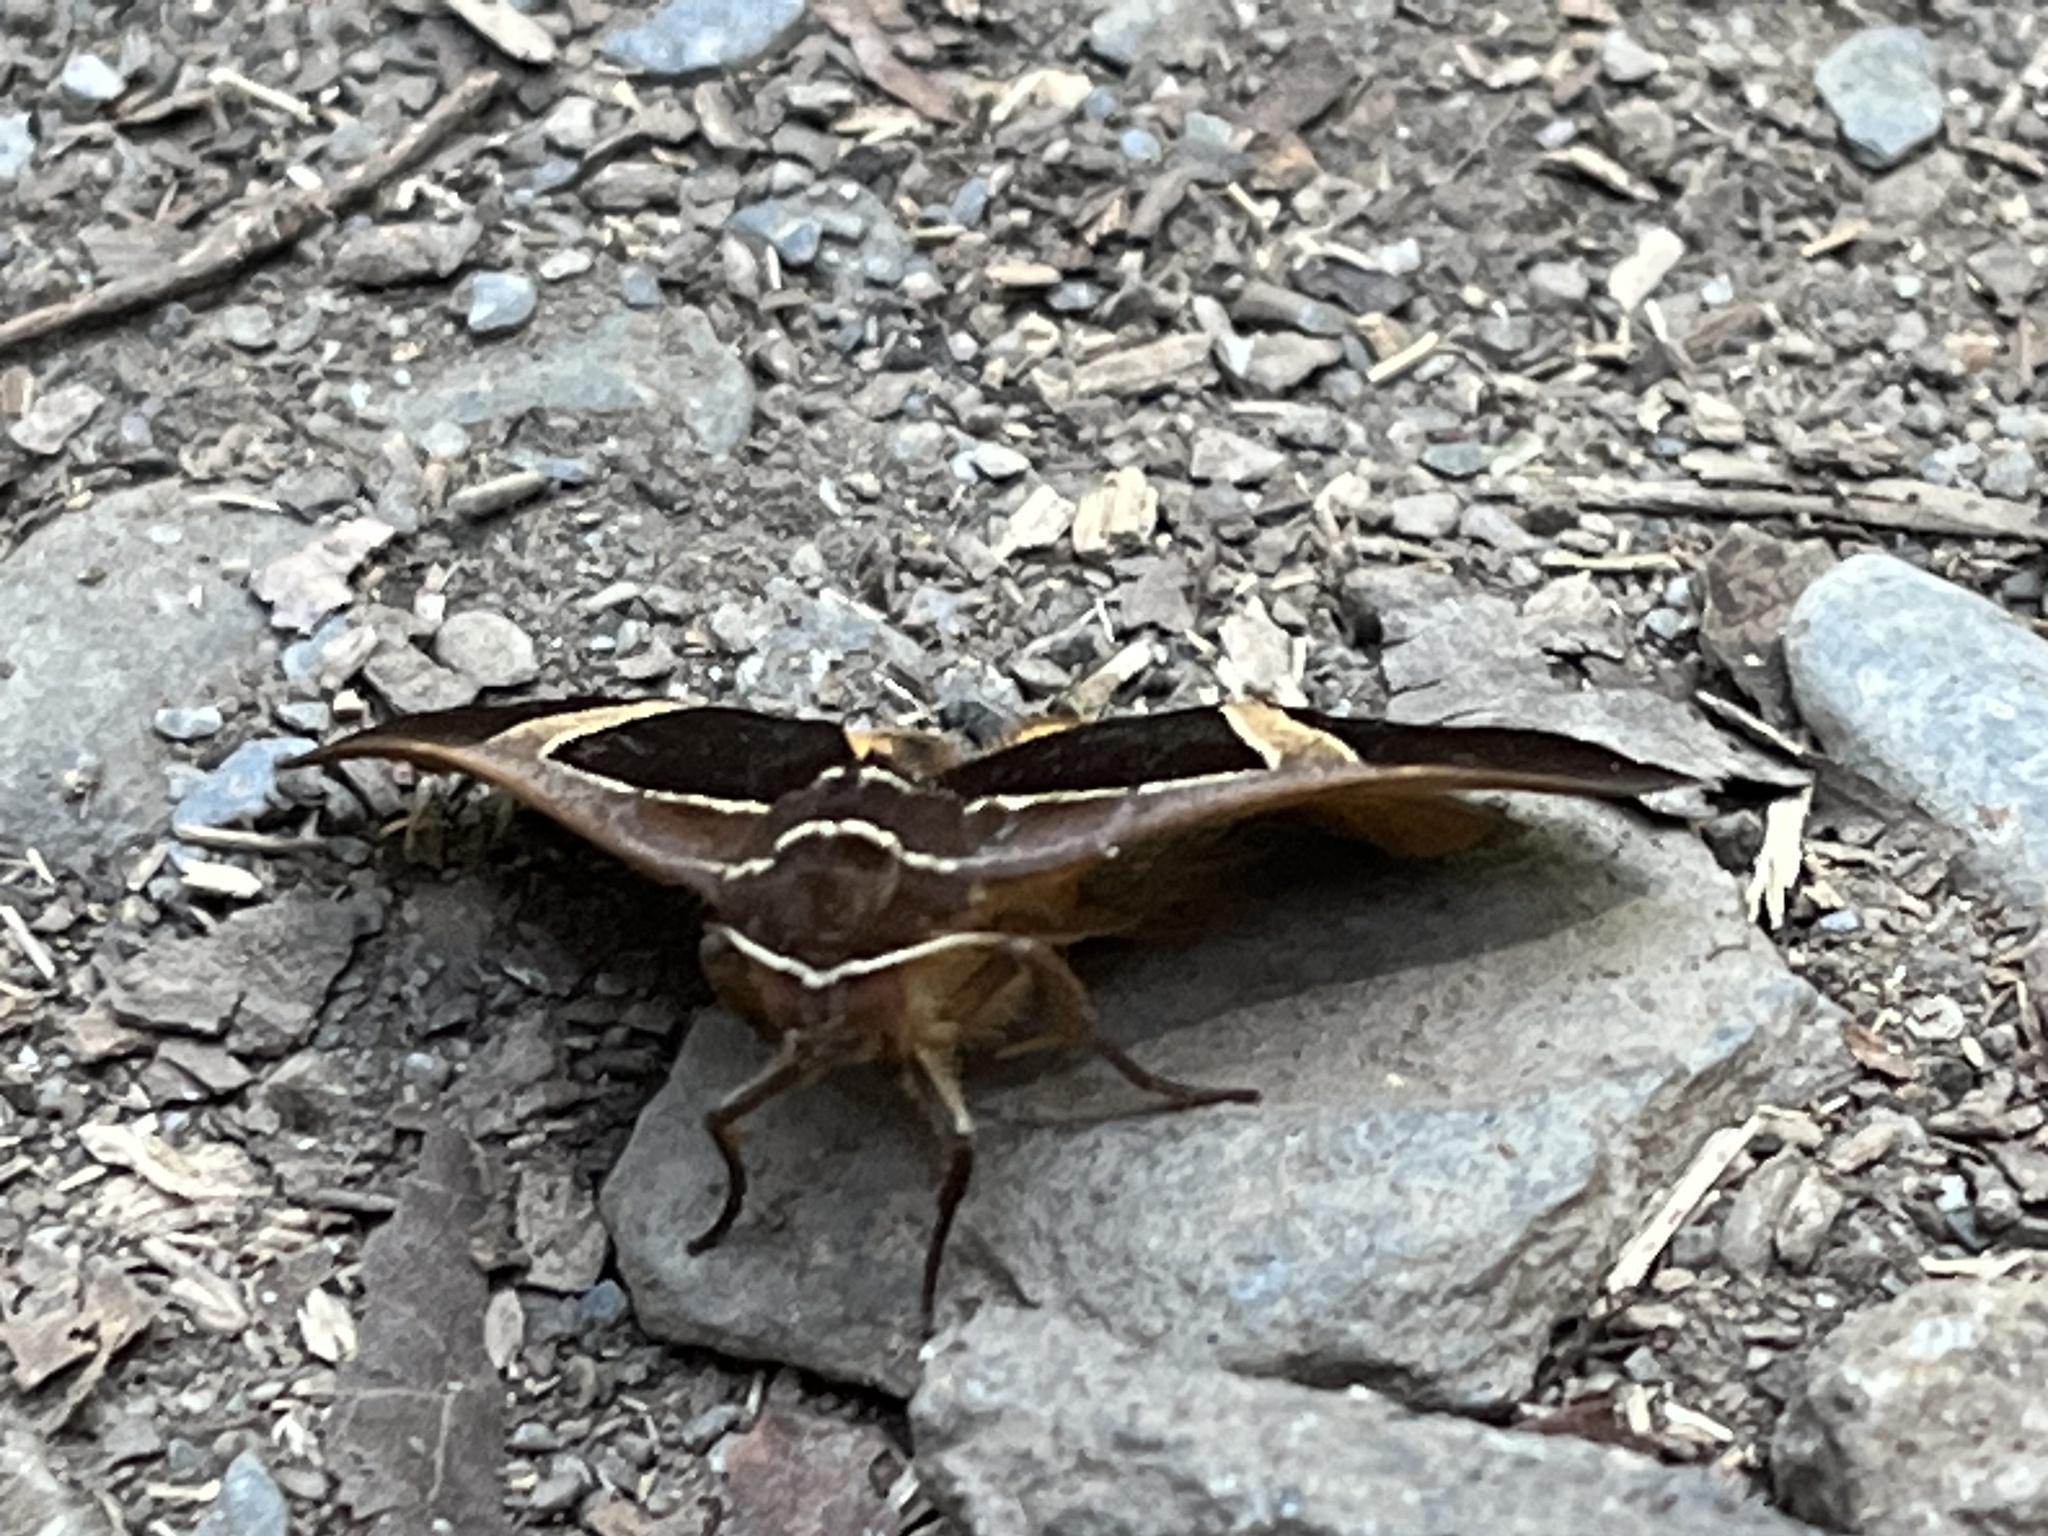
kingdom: Animalia
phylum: Arthropoda
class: Insecta
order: Lepidoptera
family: Erebidae
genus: Fodina
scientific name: Fodina kosemponis
